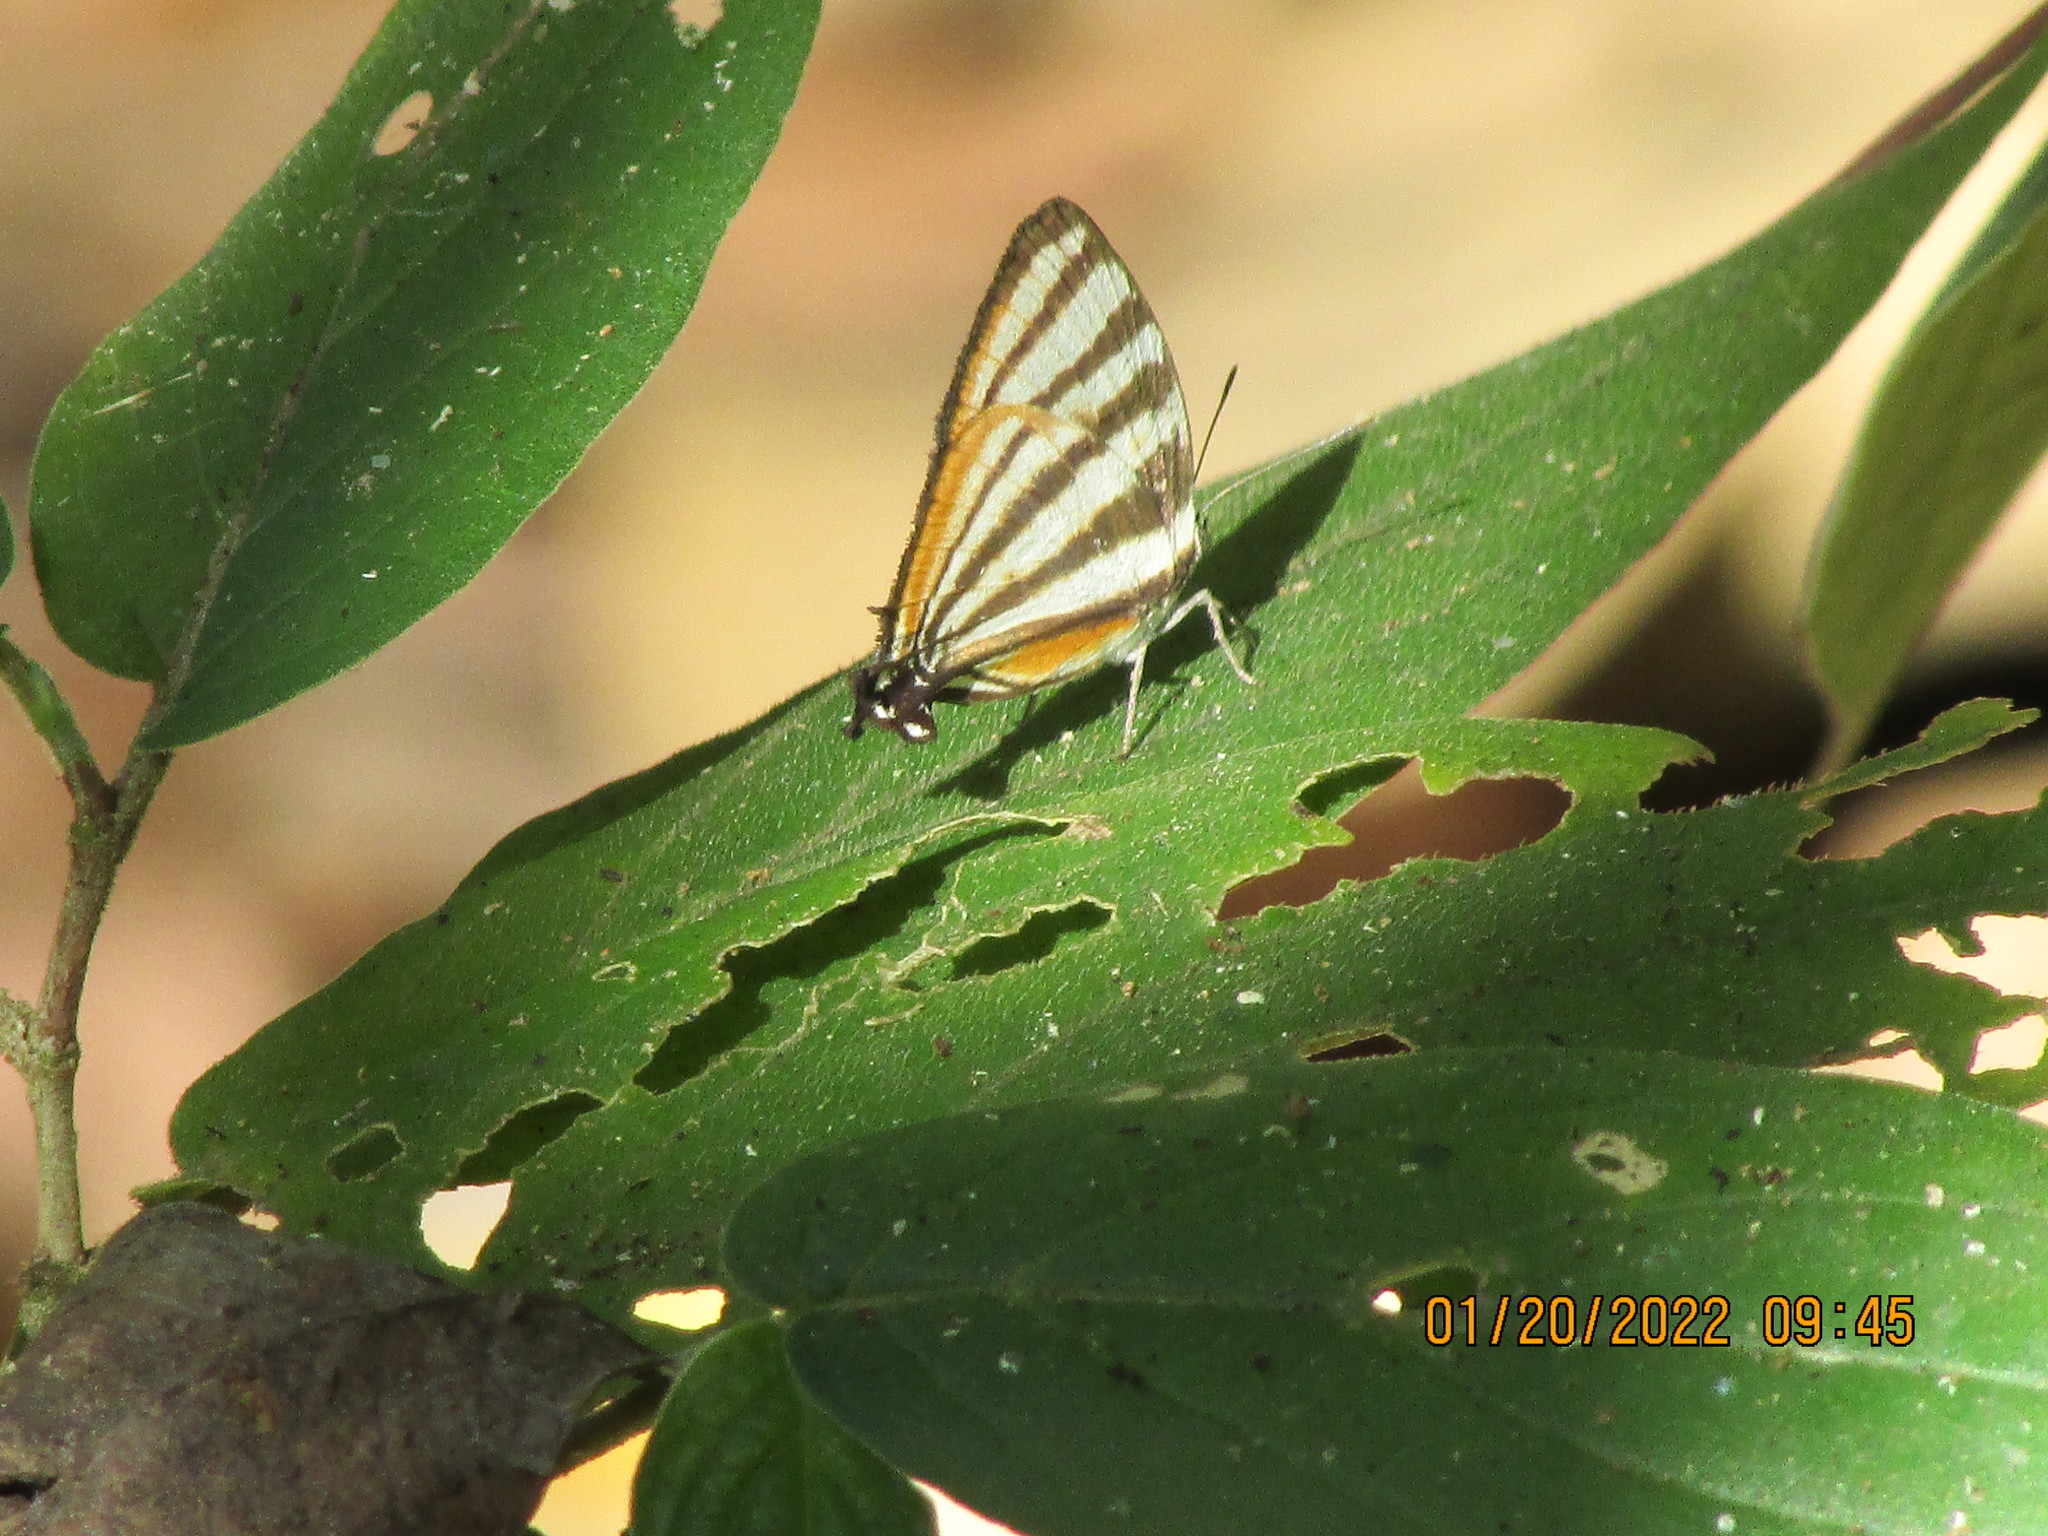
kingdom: Animalia
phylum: Arthropoda
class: Insecta
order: Lepidoptera
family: Lycaenidae
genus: Arawacus
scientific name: Arawacus lincoides
